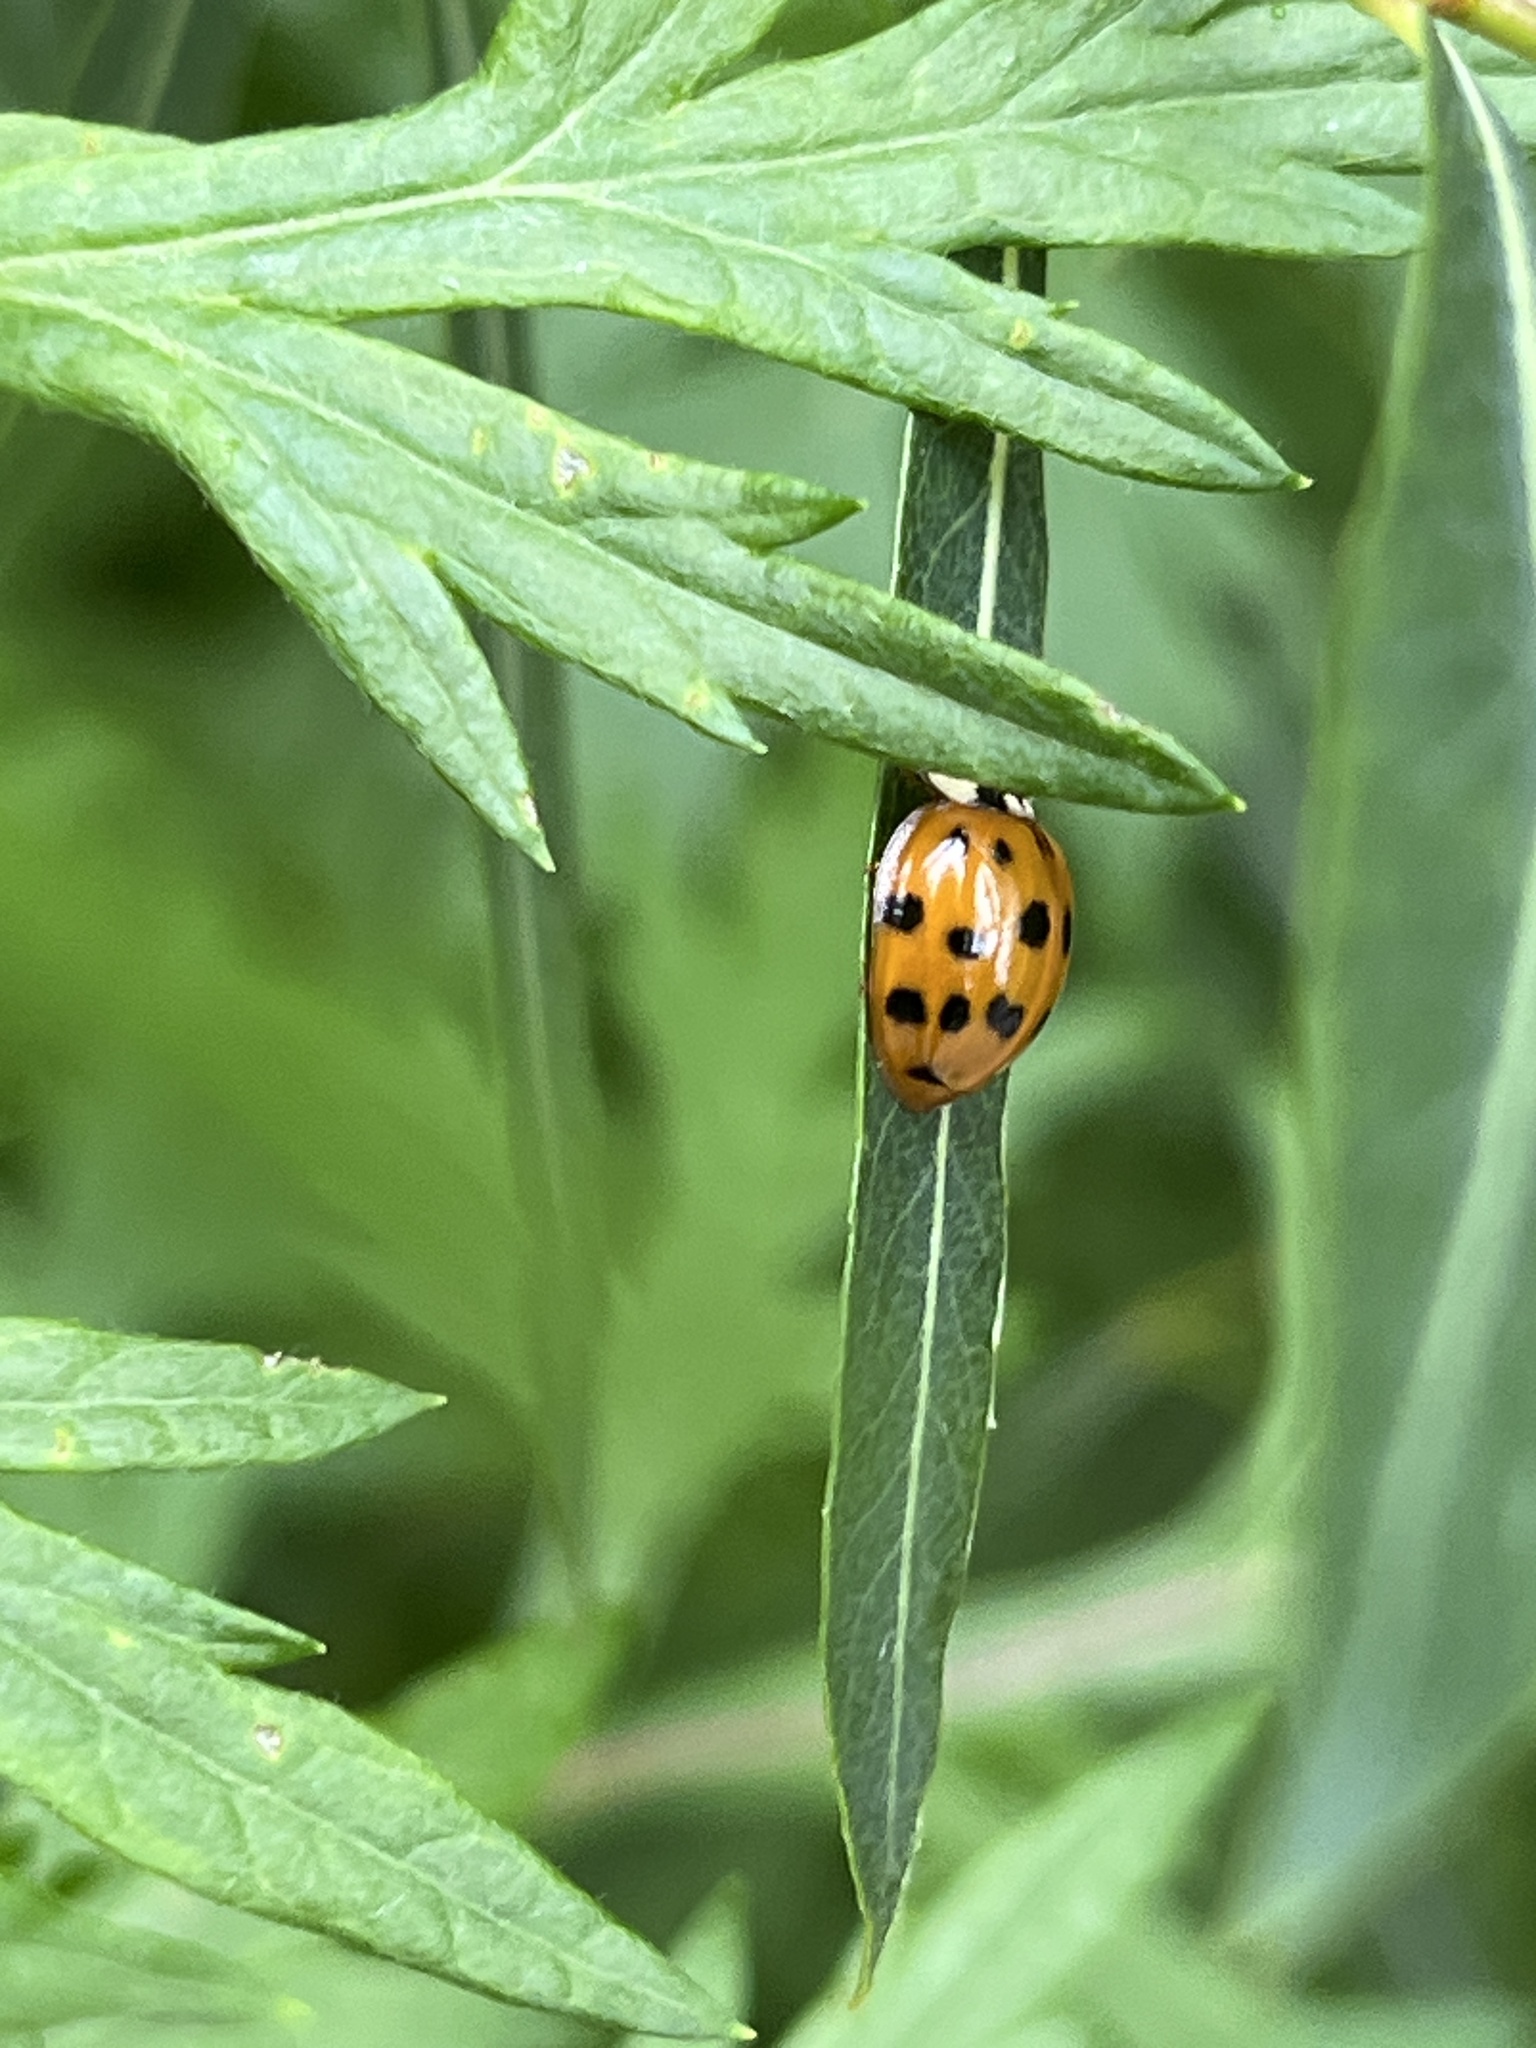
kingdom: Animalia
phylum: Arthropoda
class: Insecta
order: Coleoptera
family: Coccinellidae
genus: Harmonia
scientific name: Harmonia axyridis
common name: Harlequin ladybird
